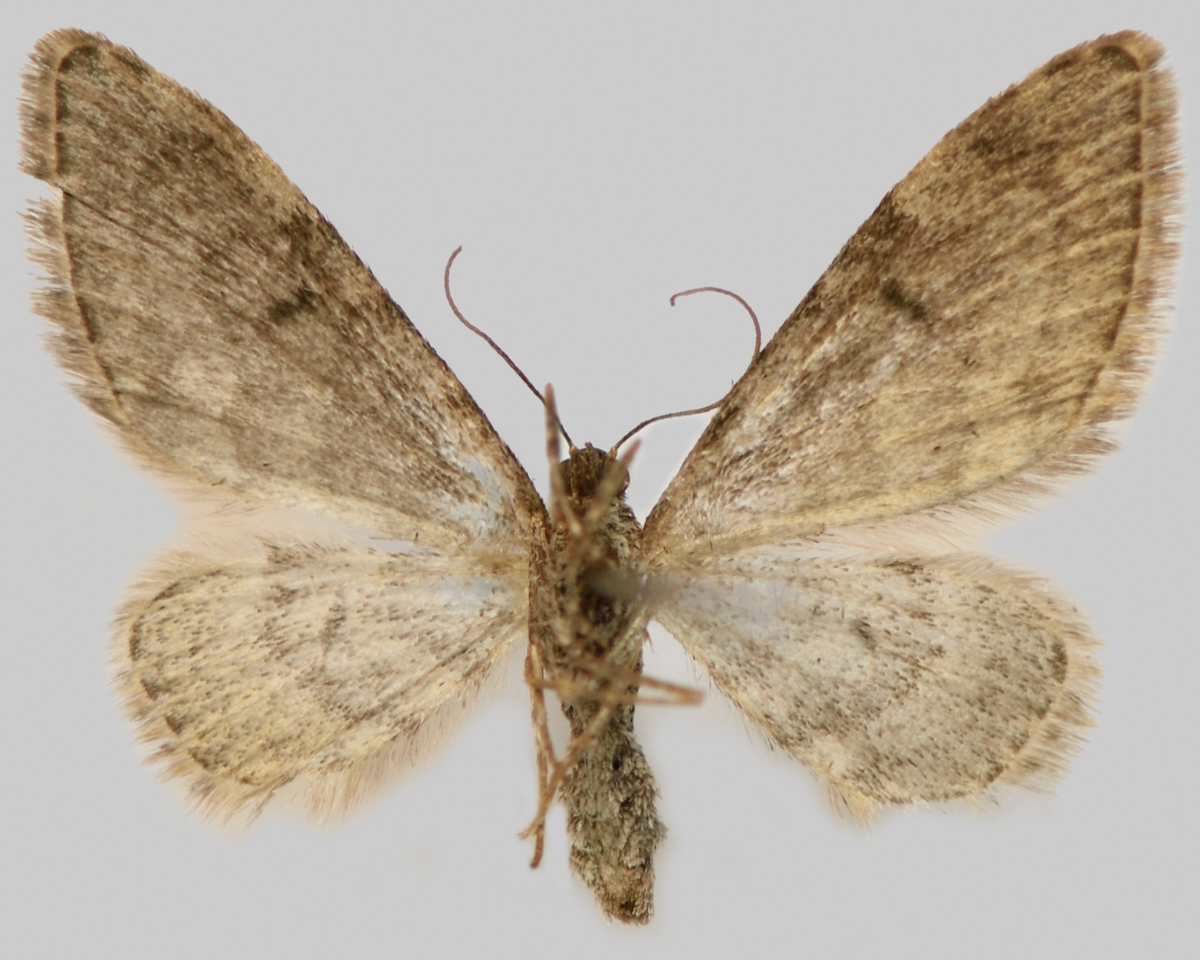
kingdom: Animalia
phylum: Arthropoda
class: Insecta
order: Lepidoptera
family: Geometridae
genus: Eupithecia
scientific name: Eupithecia indigata
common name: Ochreous pug
